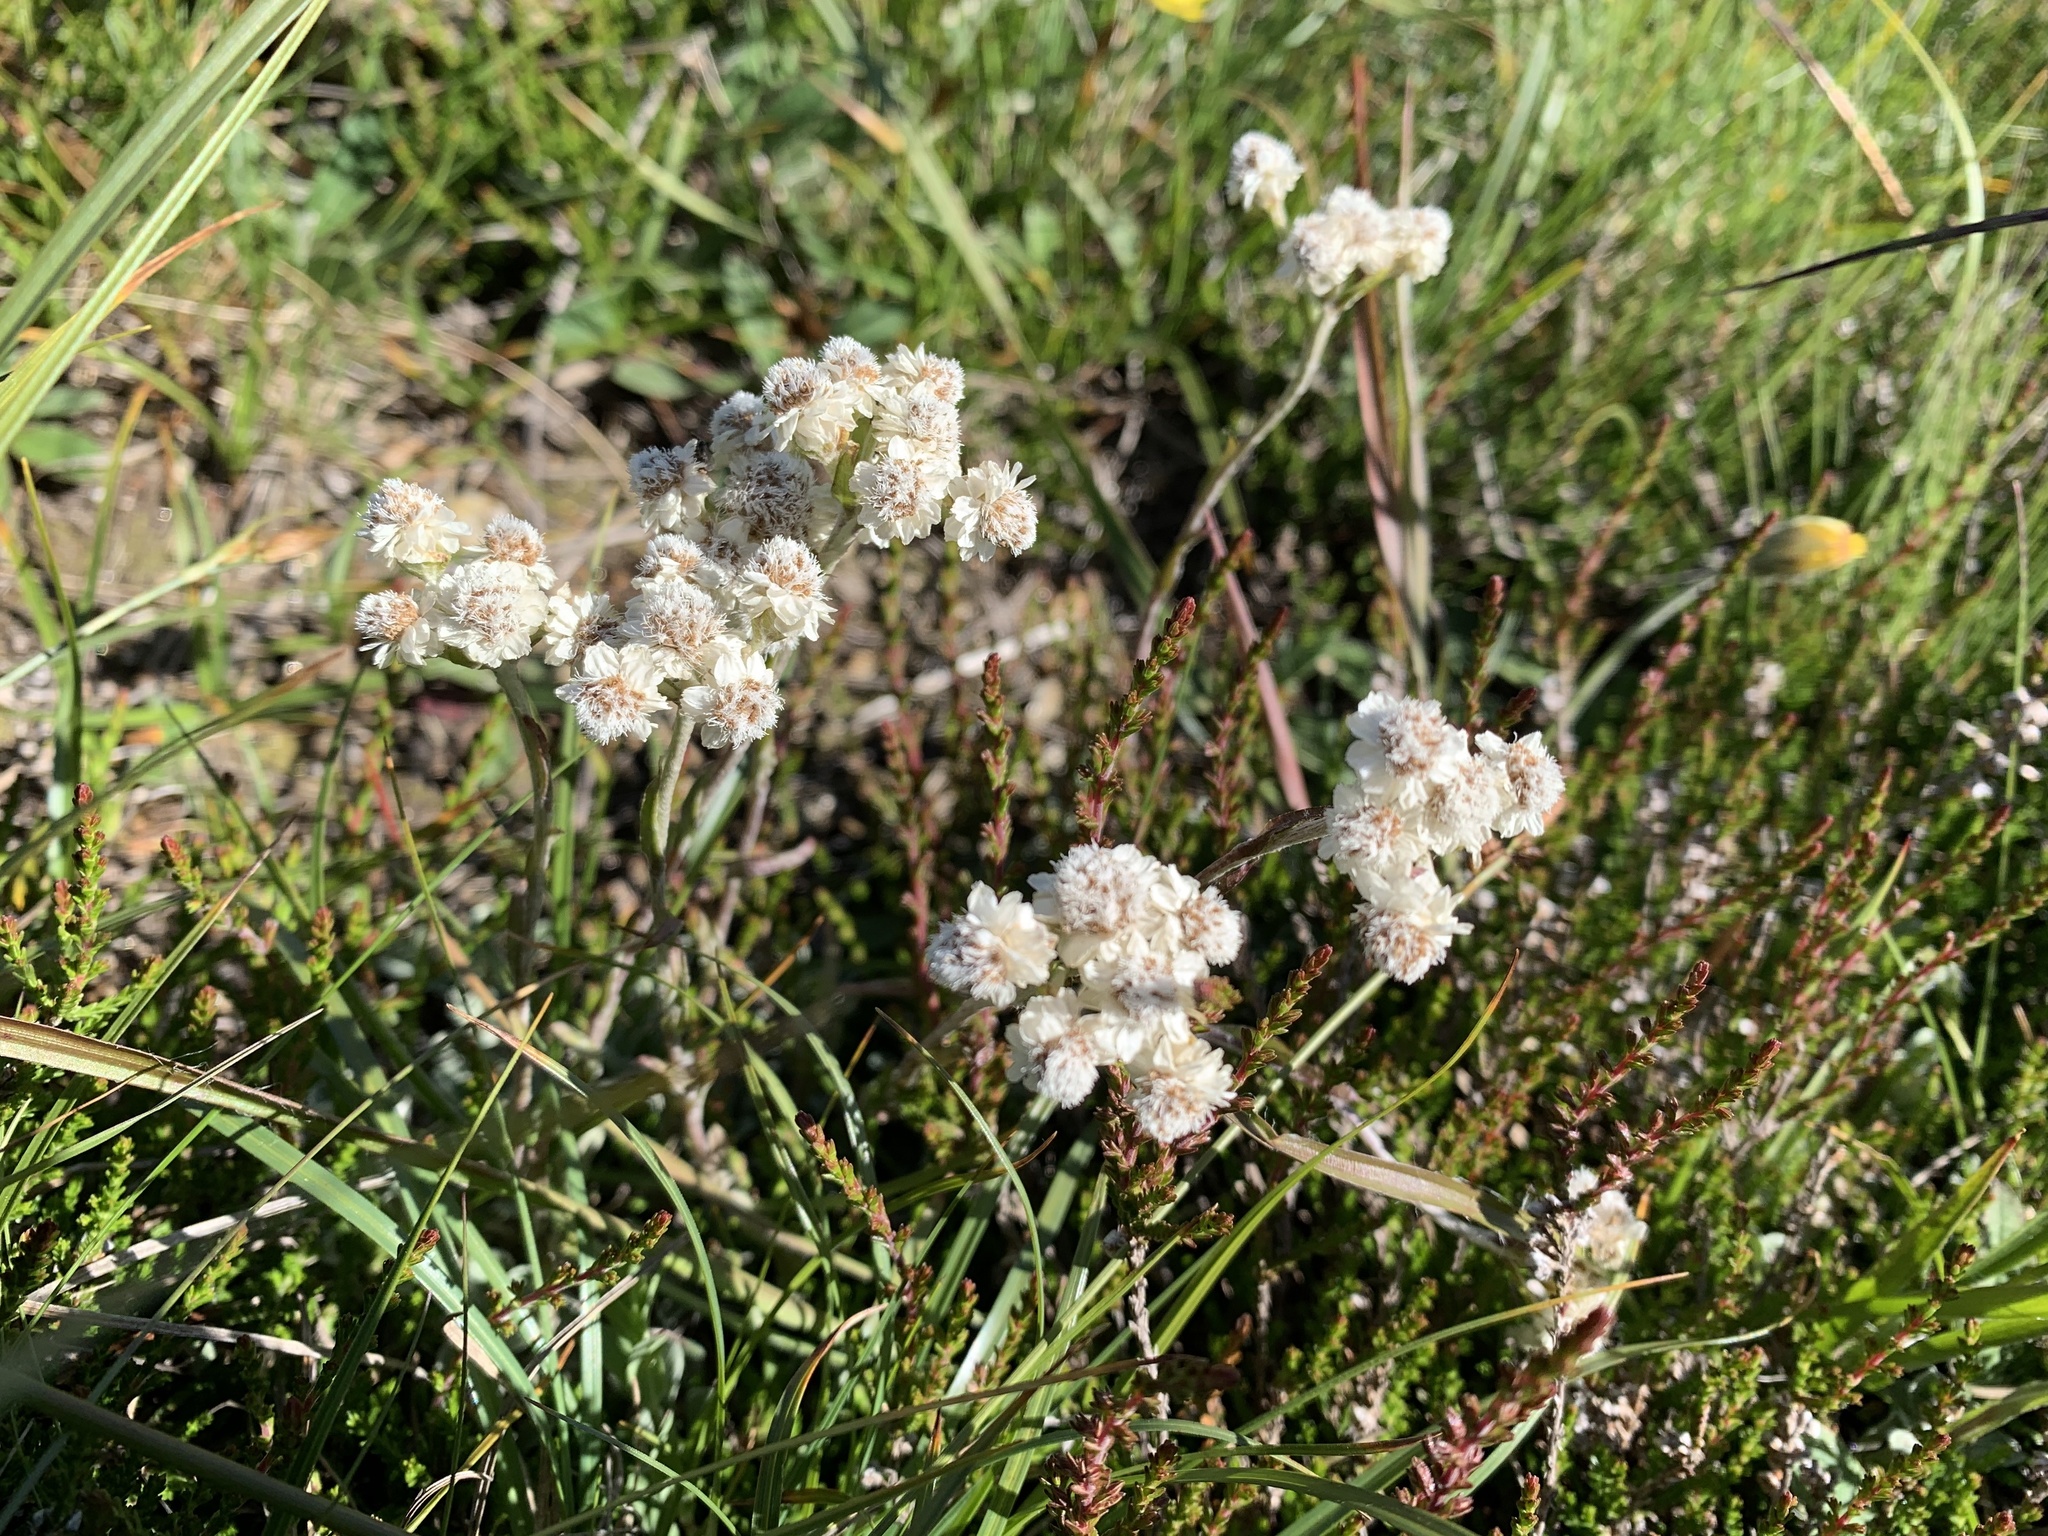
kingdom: Plantae
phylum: Tracheophyta
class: Magnoliopsida
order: Asterales
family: Asteraceae
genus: Antennaria
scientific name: Antennaria dioica
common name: Mountain everlasting
